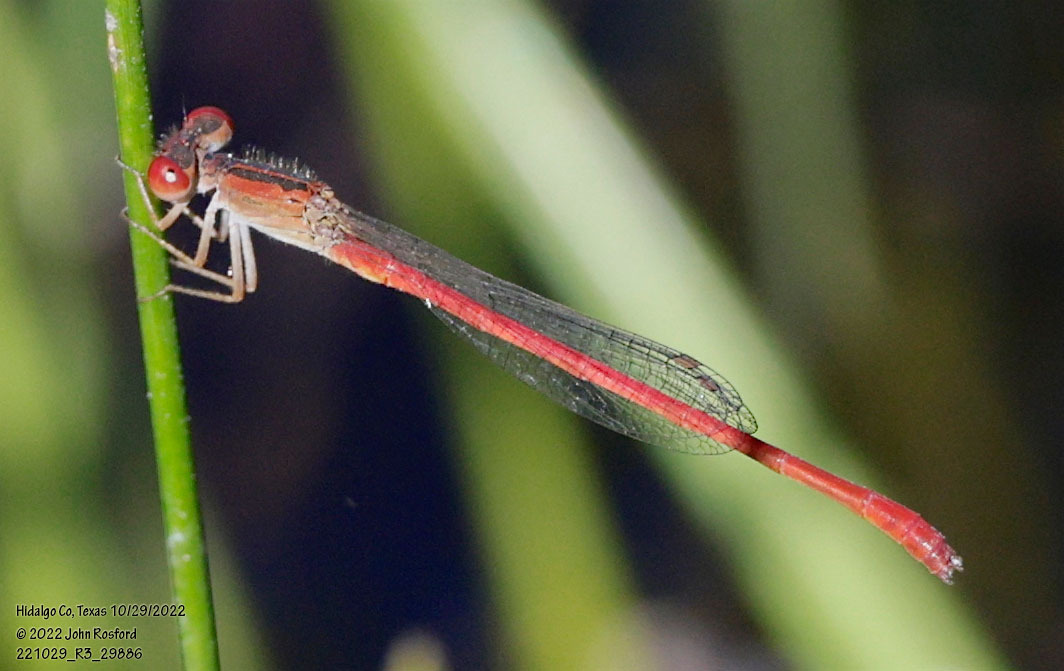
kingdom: Animalia
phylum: Arthropoda
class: Insecta
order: Odonata
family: Coenagrionidae
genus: Telebasis
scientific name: Telebasis salva
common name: Desert firetail
